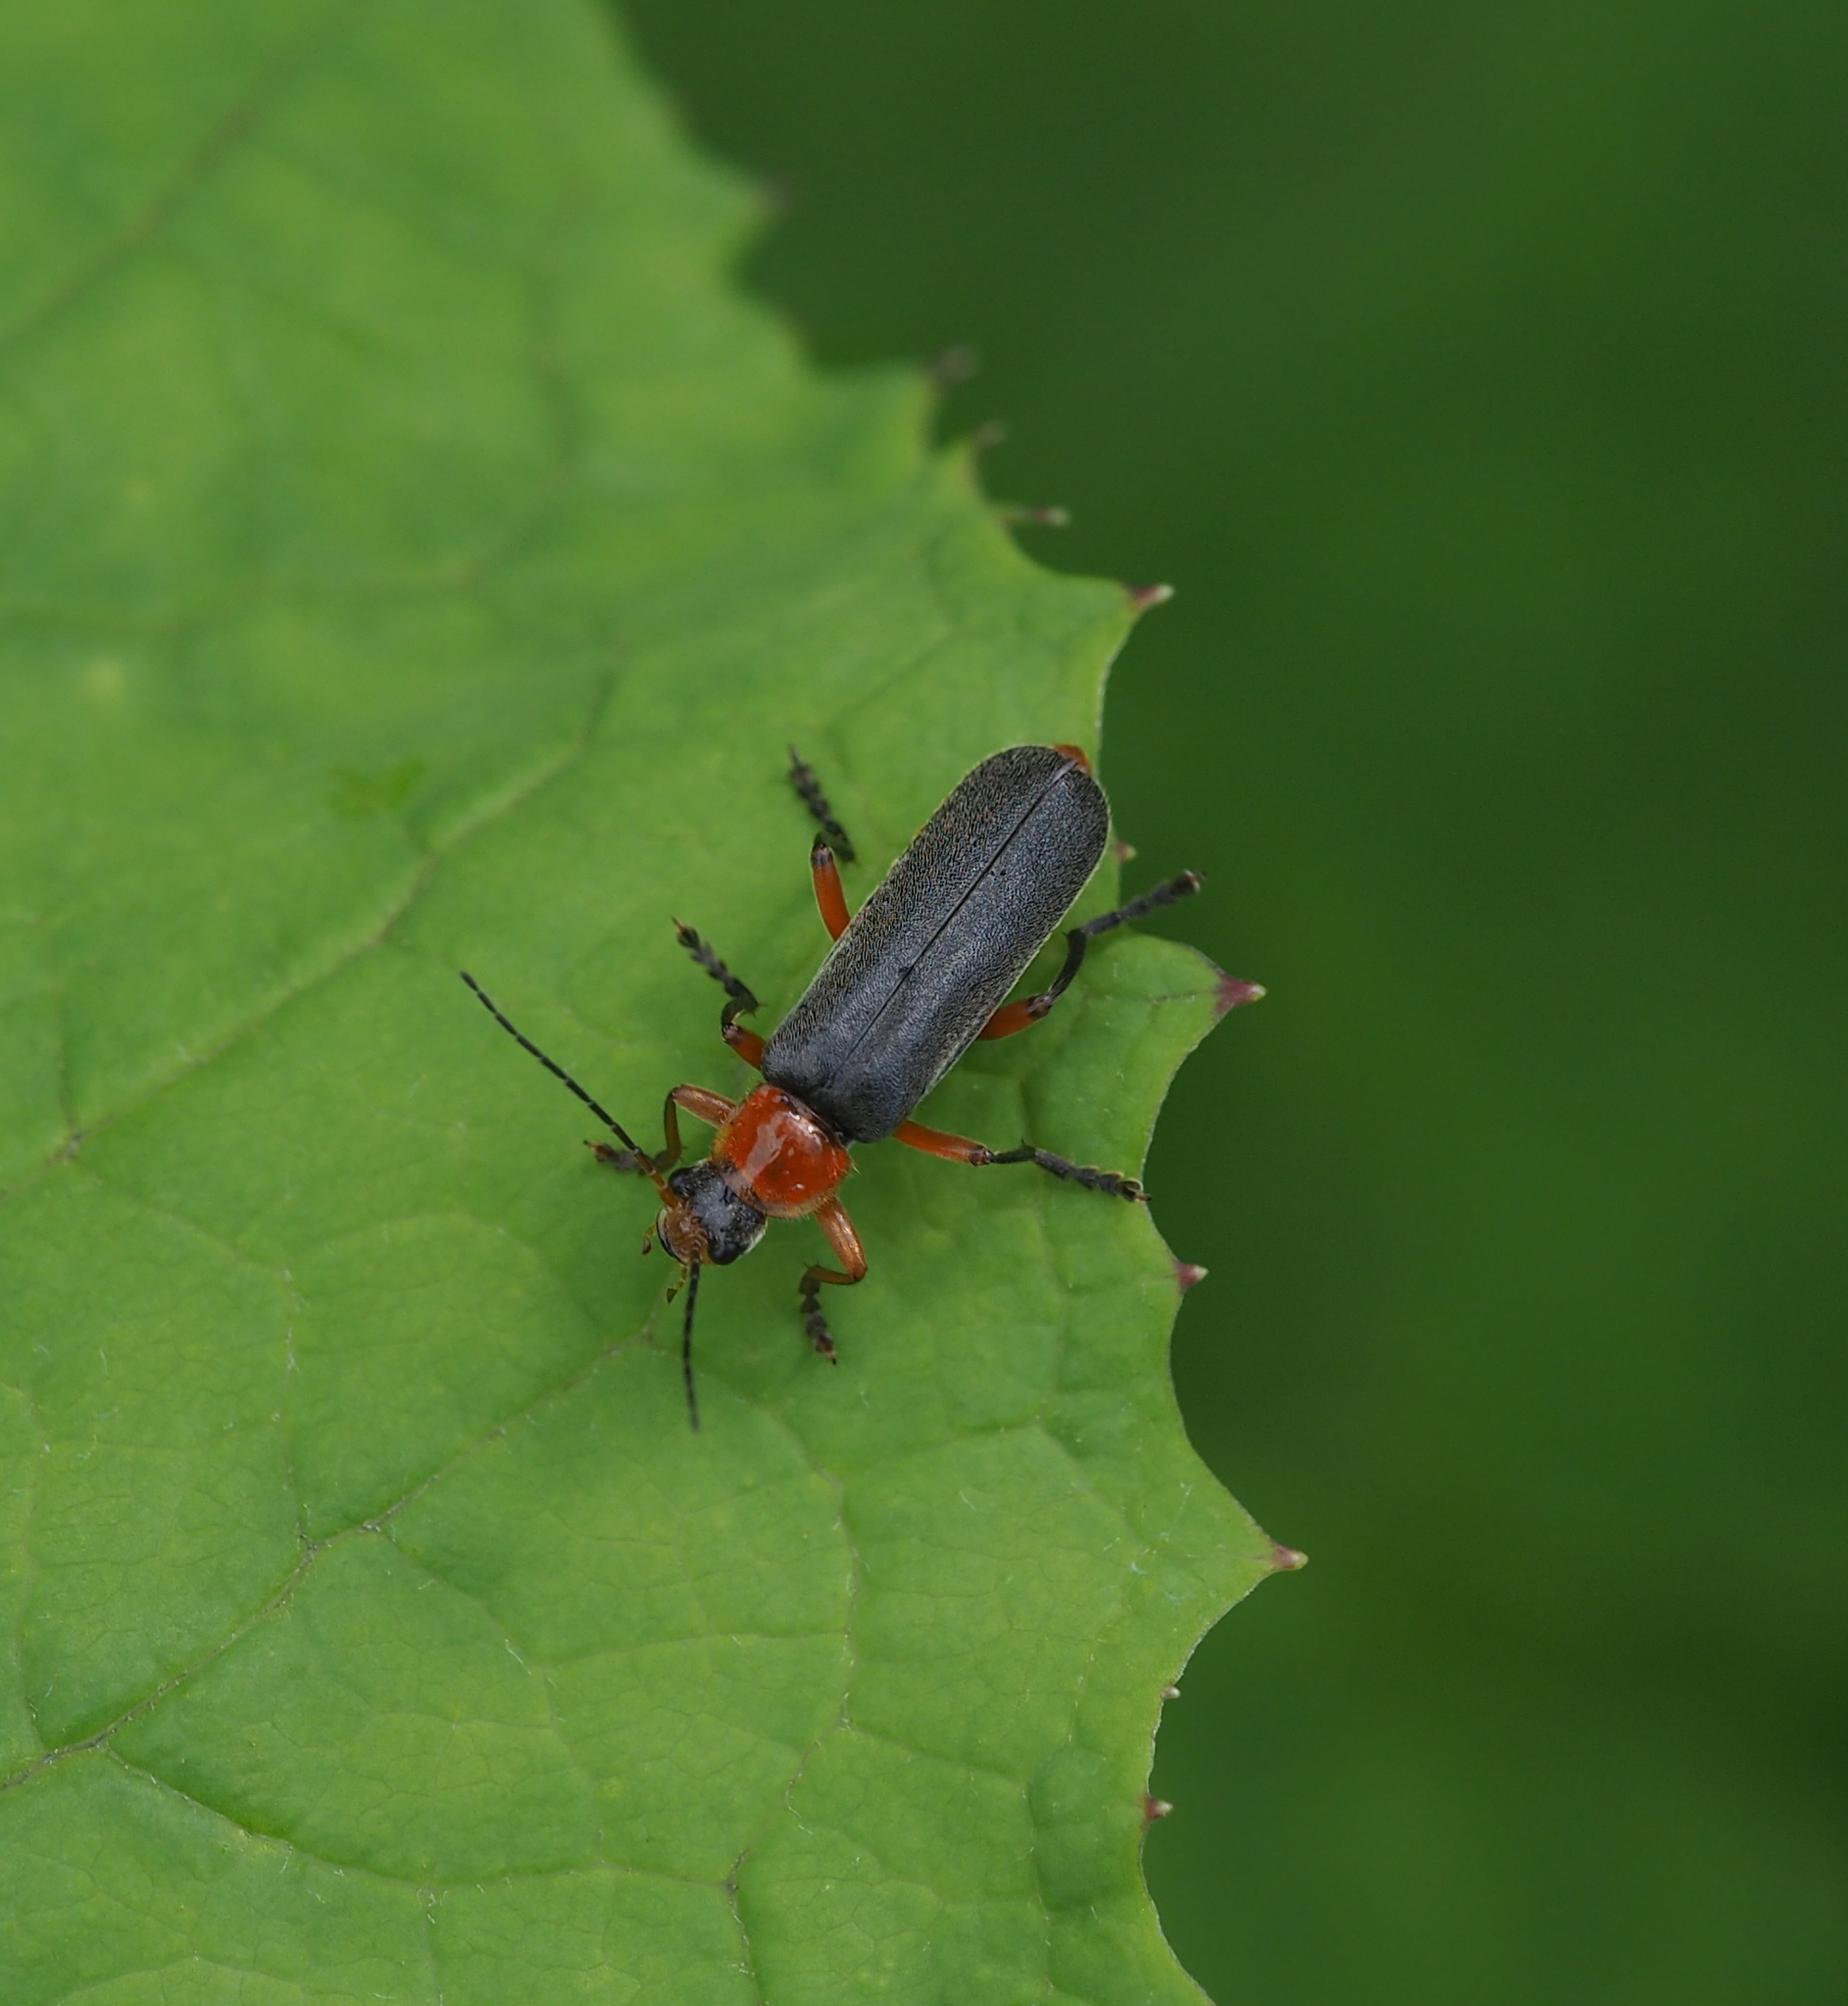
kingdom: Animalia
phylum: Arthropoda
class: Insecta
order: Coleoptera
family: Cantharidae
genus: Cantharis
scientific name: Cantharis pellucida
